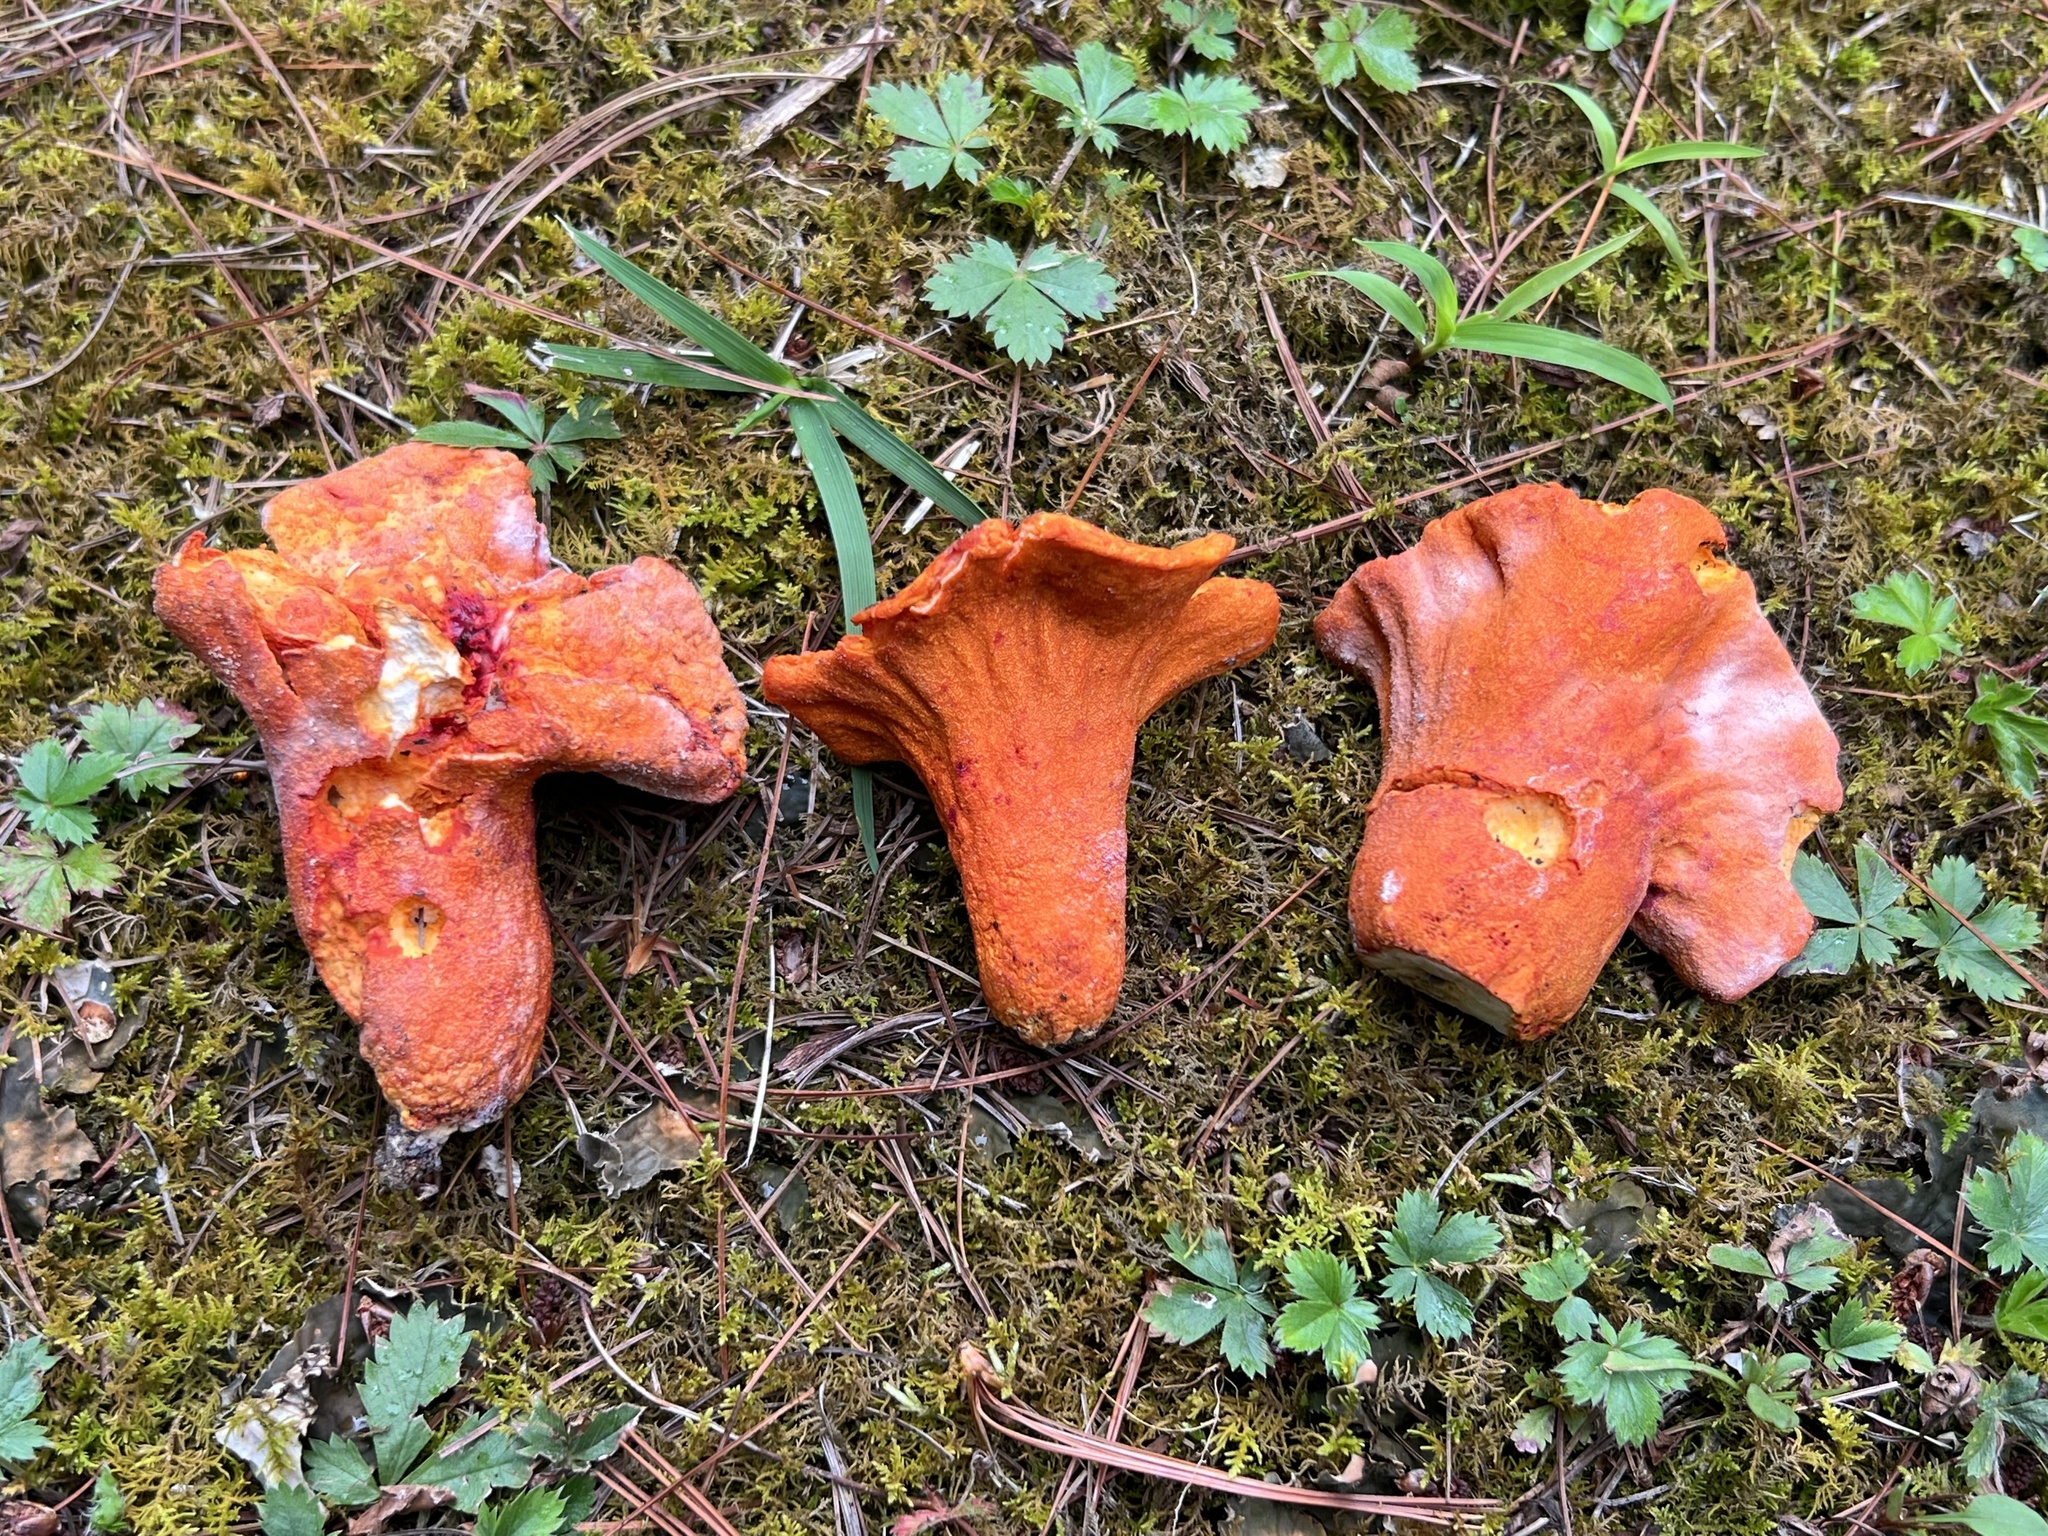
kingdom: Fungi
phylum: Ascomycota
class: Sordariomycetes
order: Hypocreales
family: Hypocreaceae
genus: Hypomyces
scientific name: Hypomyces lactifluorum
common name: Lobster mushroom
